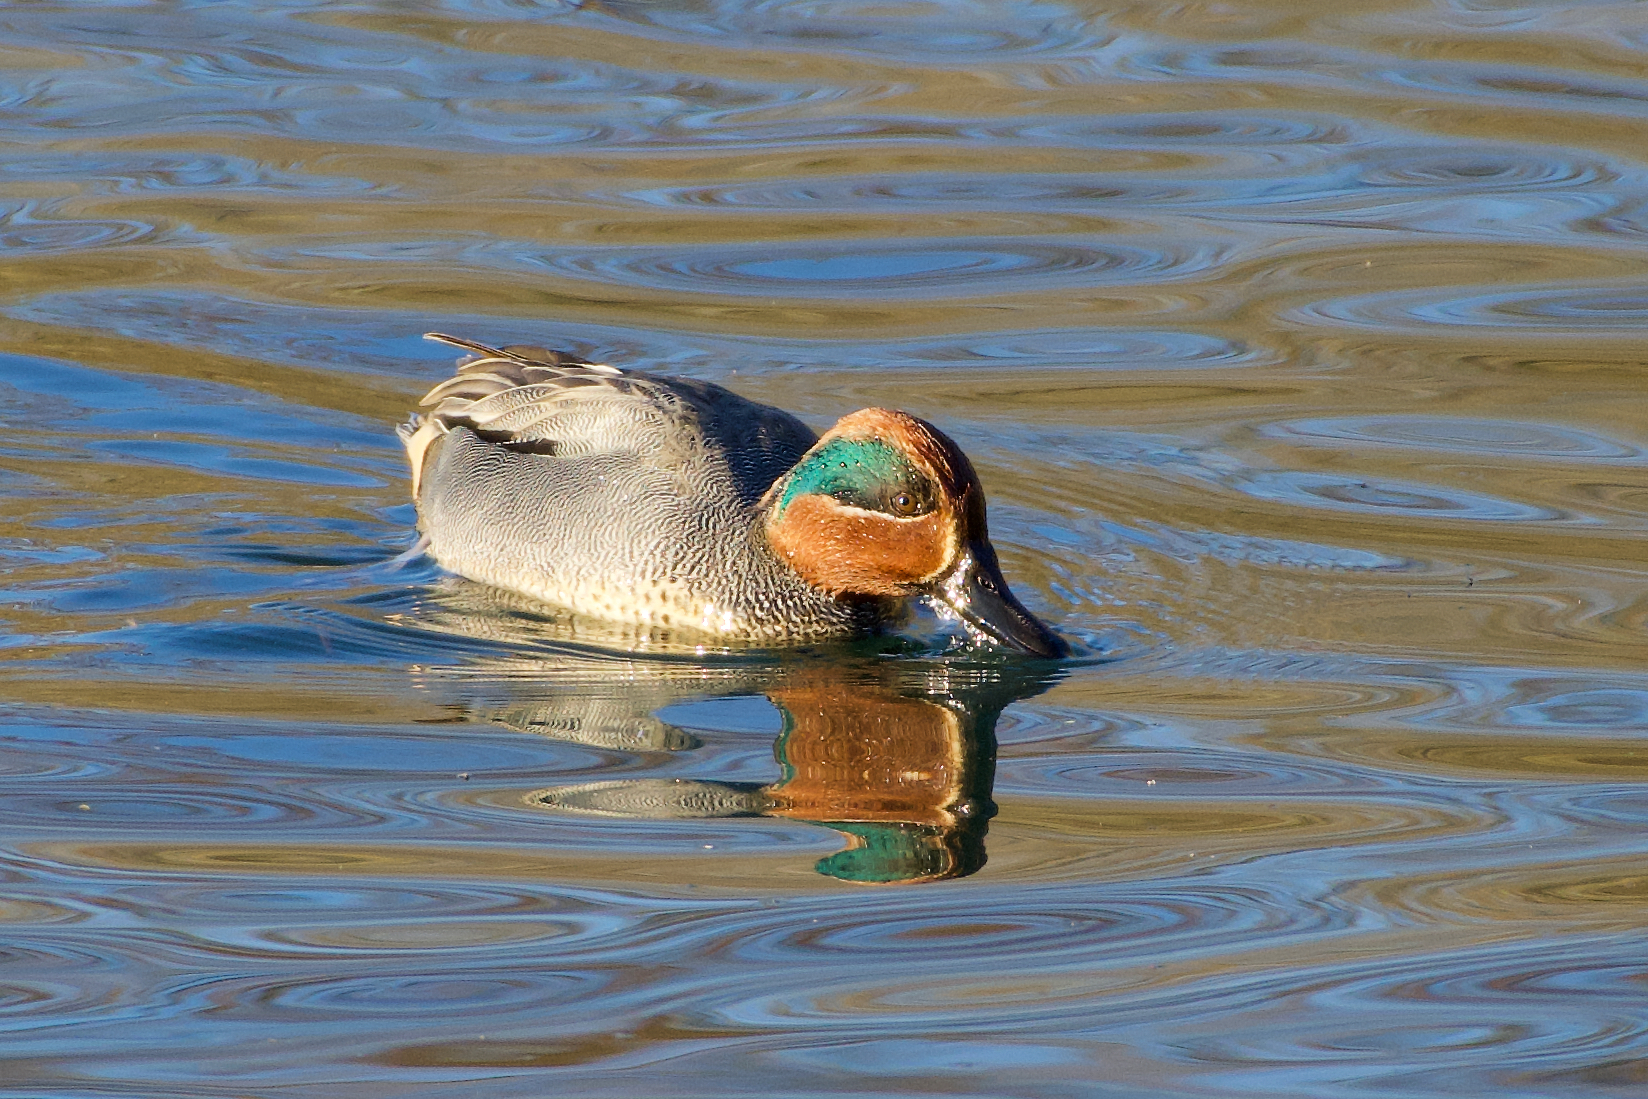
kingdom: Animalia
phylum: Chordata
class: Aves
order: Anseriformes
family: Anatidae
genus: Anas
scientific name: Anas crecca
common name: Eurasian teal
